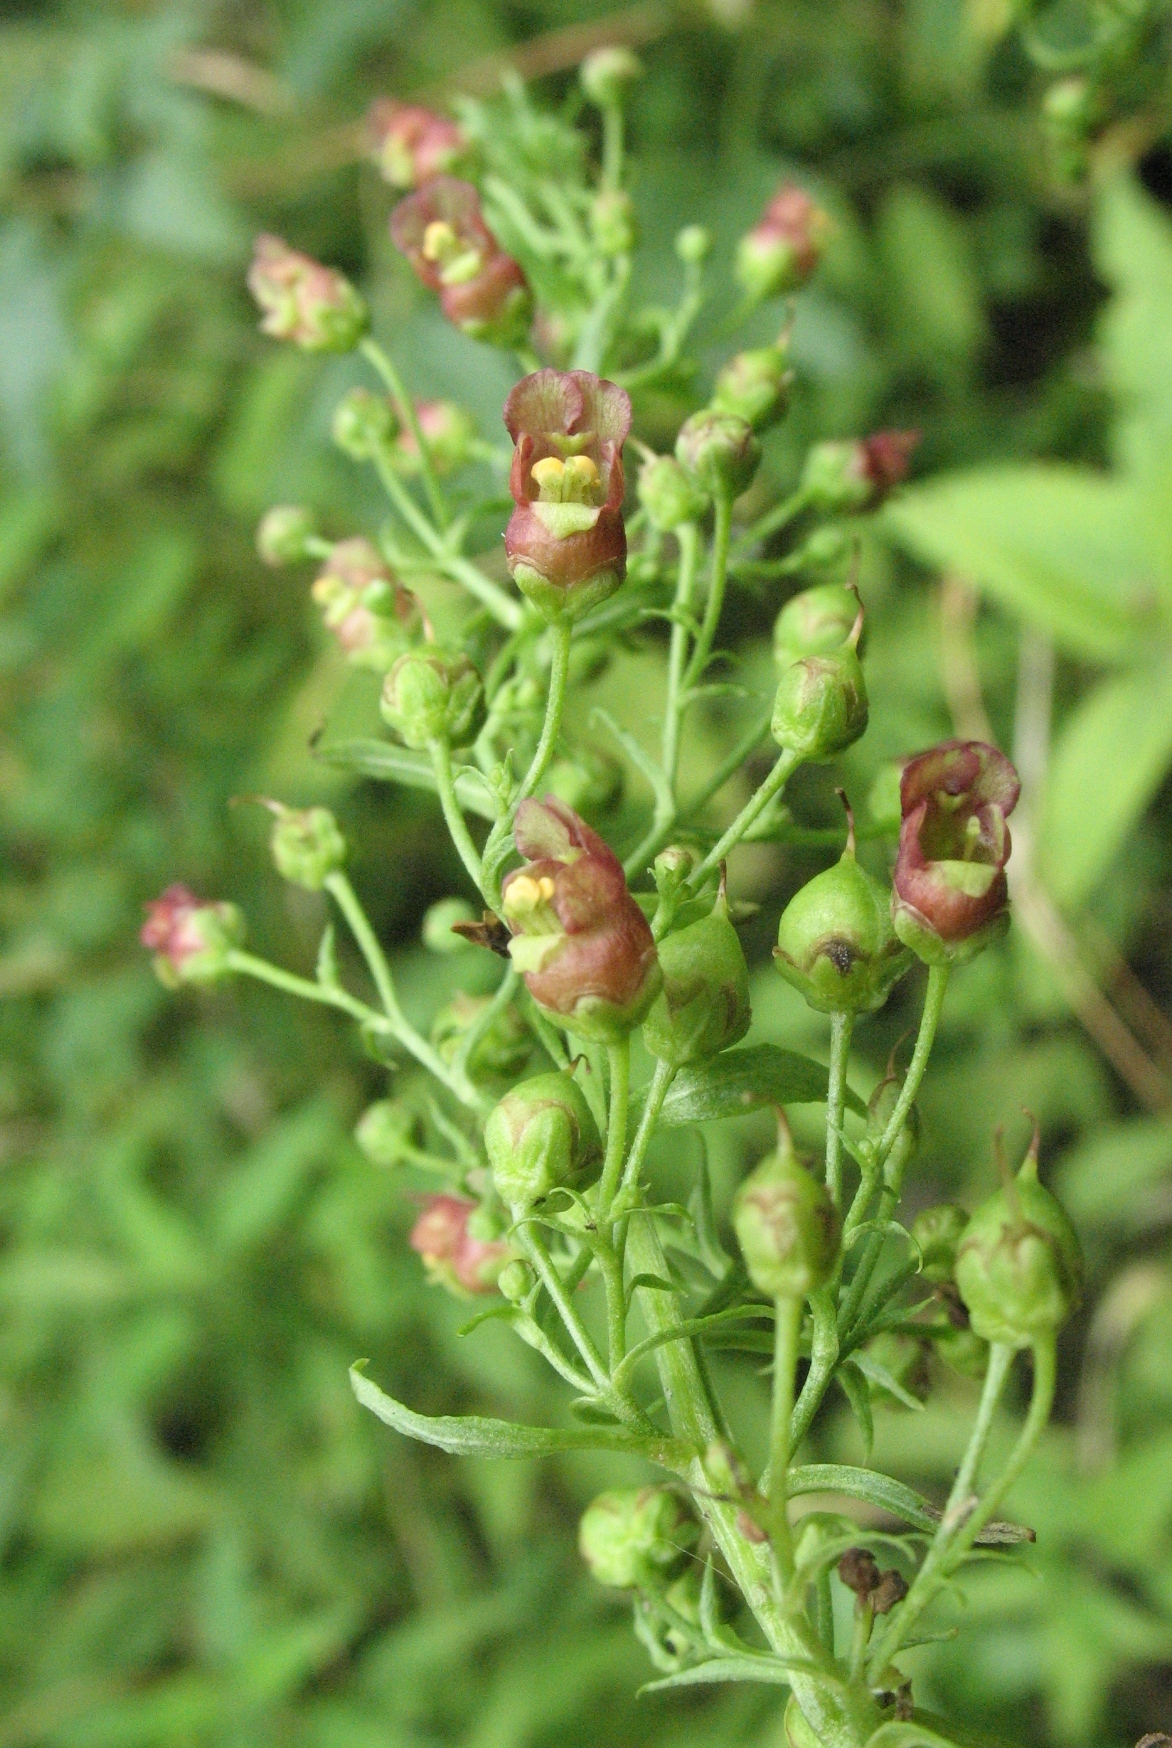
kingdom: Plantae
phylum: Tracheophyta
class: Magnoliopsida
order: Lamiales
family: Scrophulariaceae
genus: Scrophularia
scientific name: Scrophularia umbrosa
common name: Green figwort
